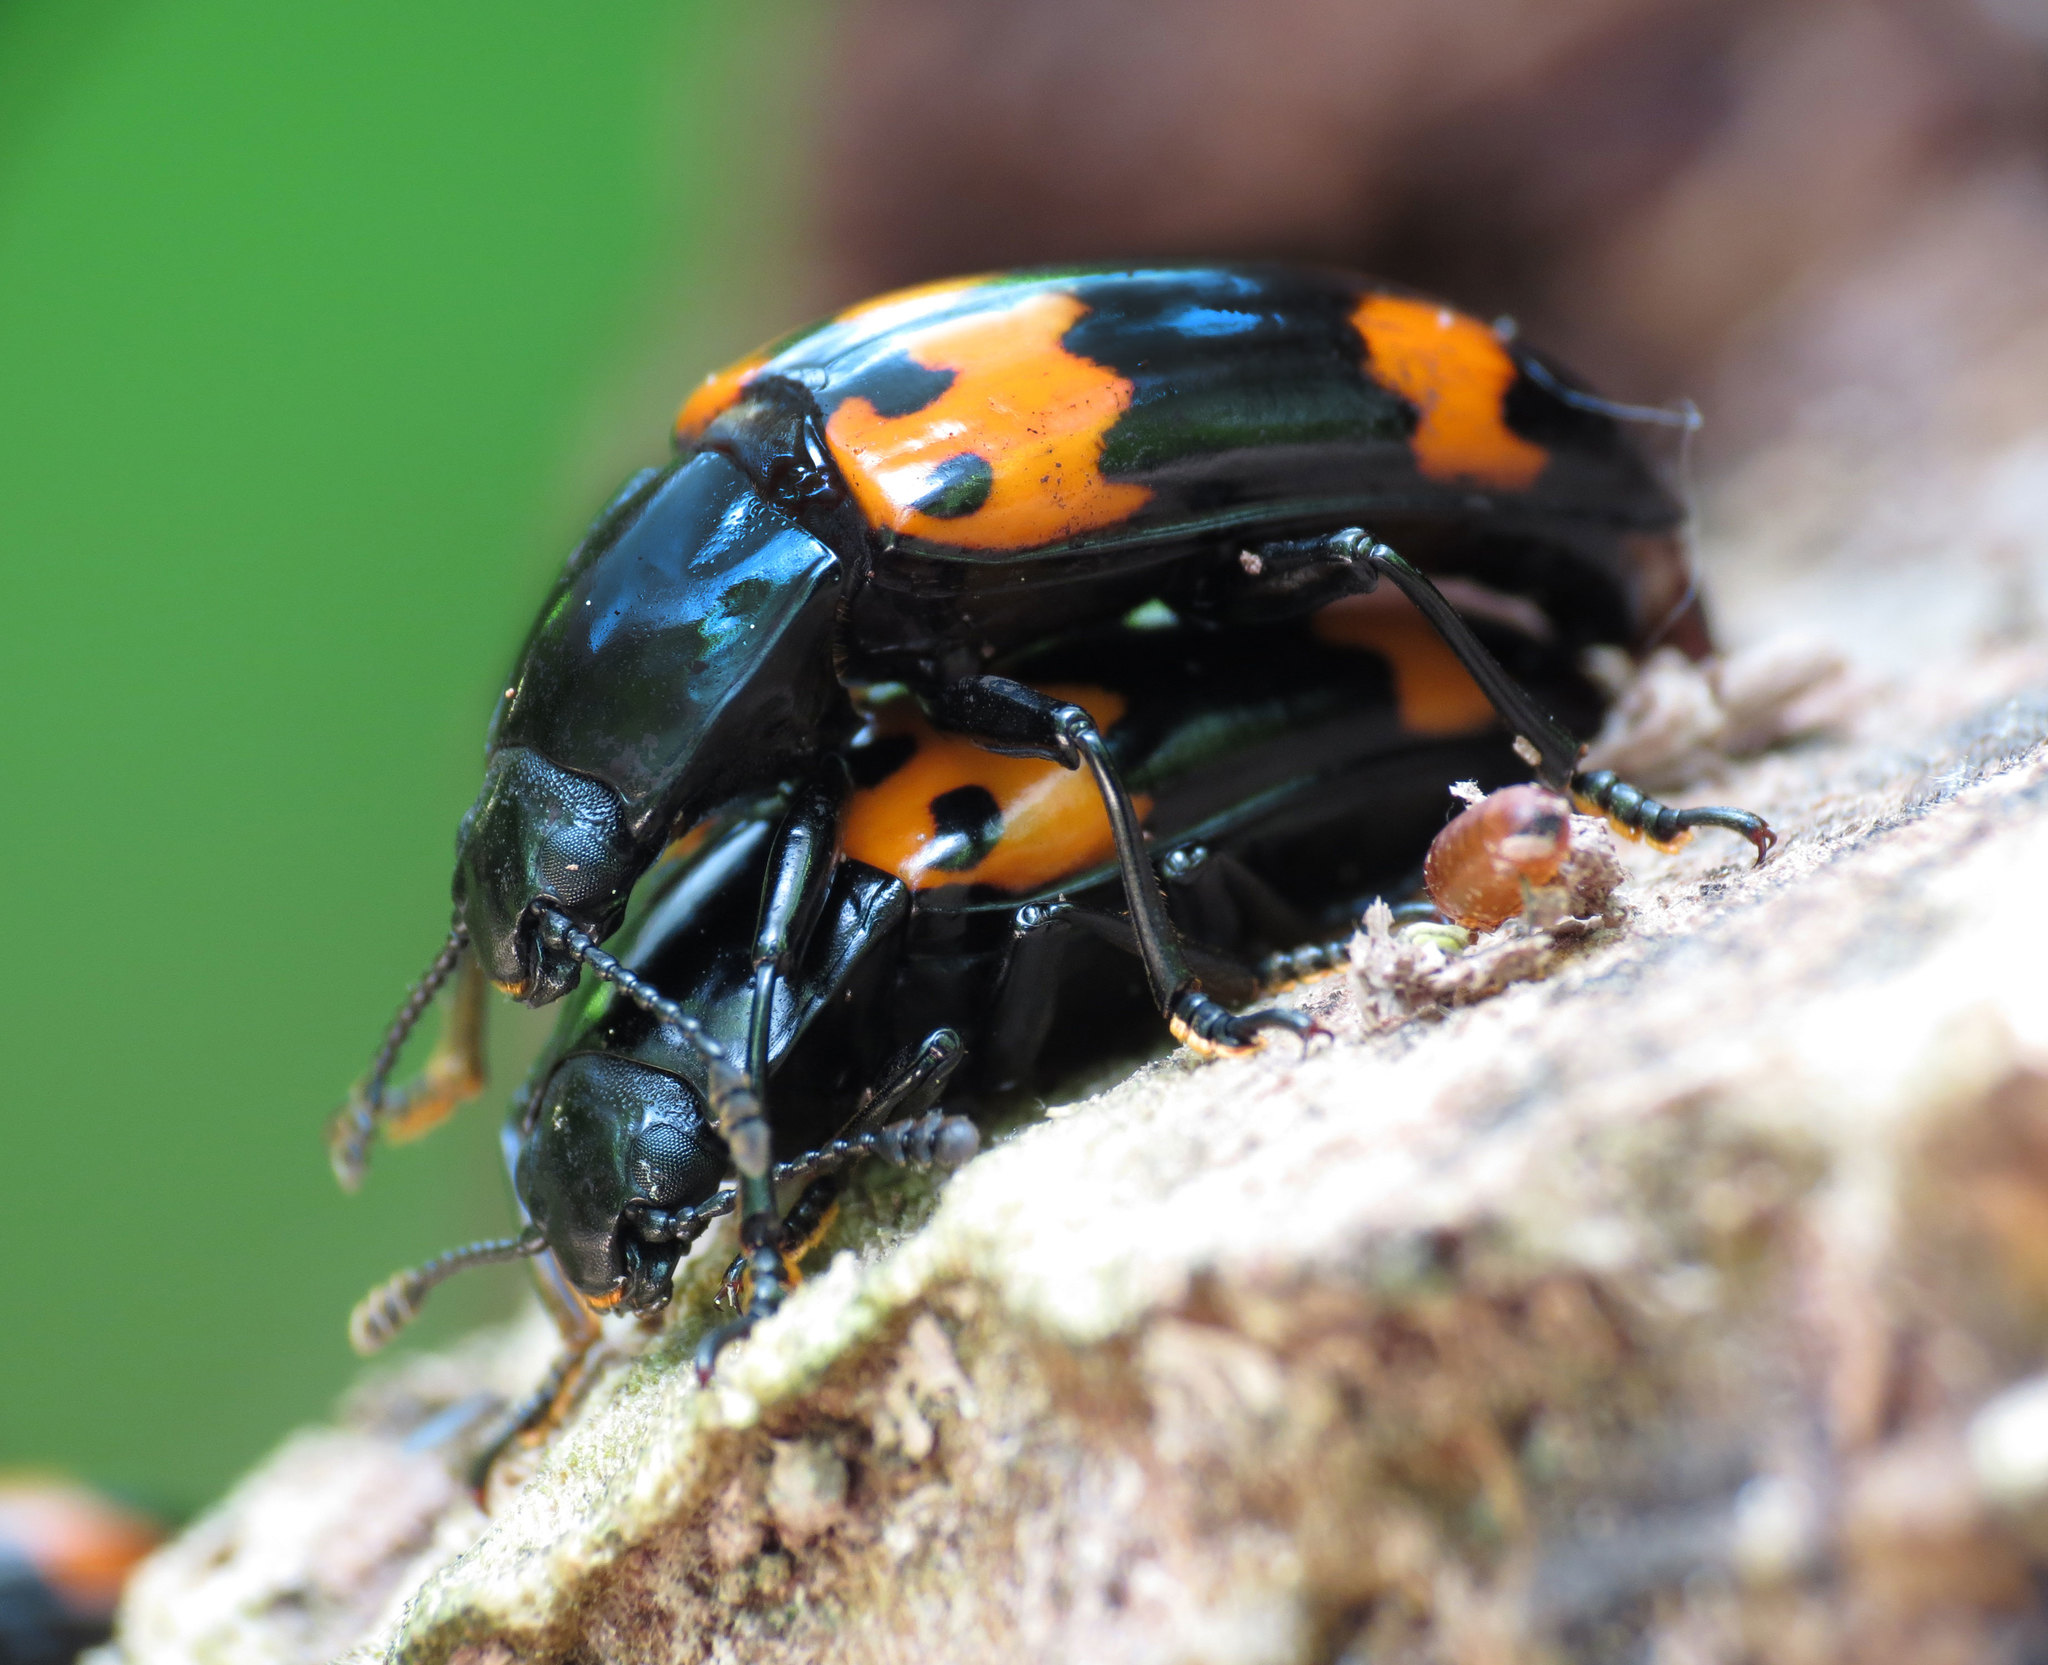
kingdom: Animalia
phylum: Arthropoda
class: Insecta
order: Coleoptera
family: Erotylidae
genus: Megalodacne
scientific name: Megalodacne heros
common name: Pleasing fungus beetle
